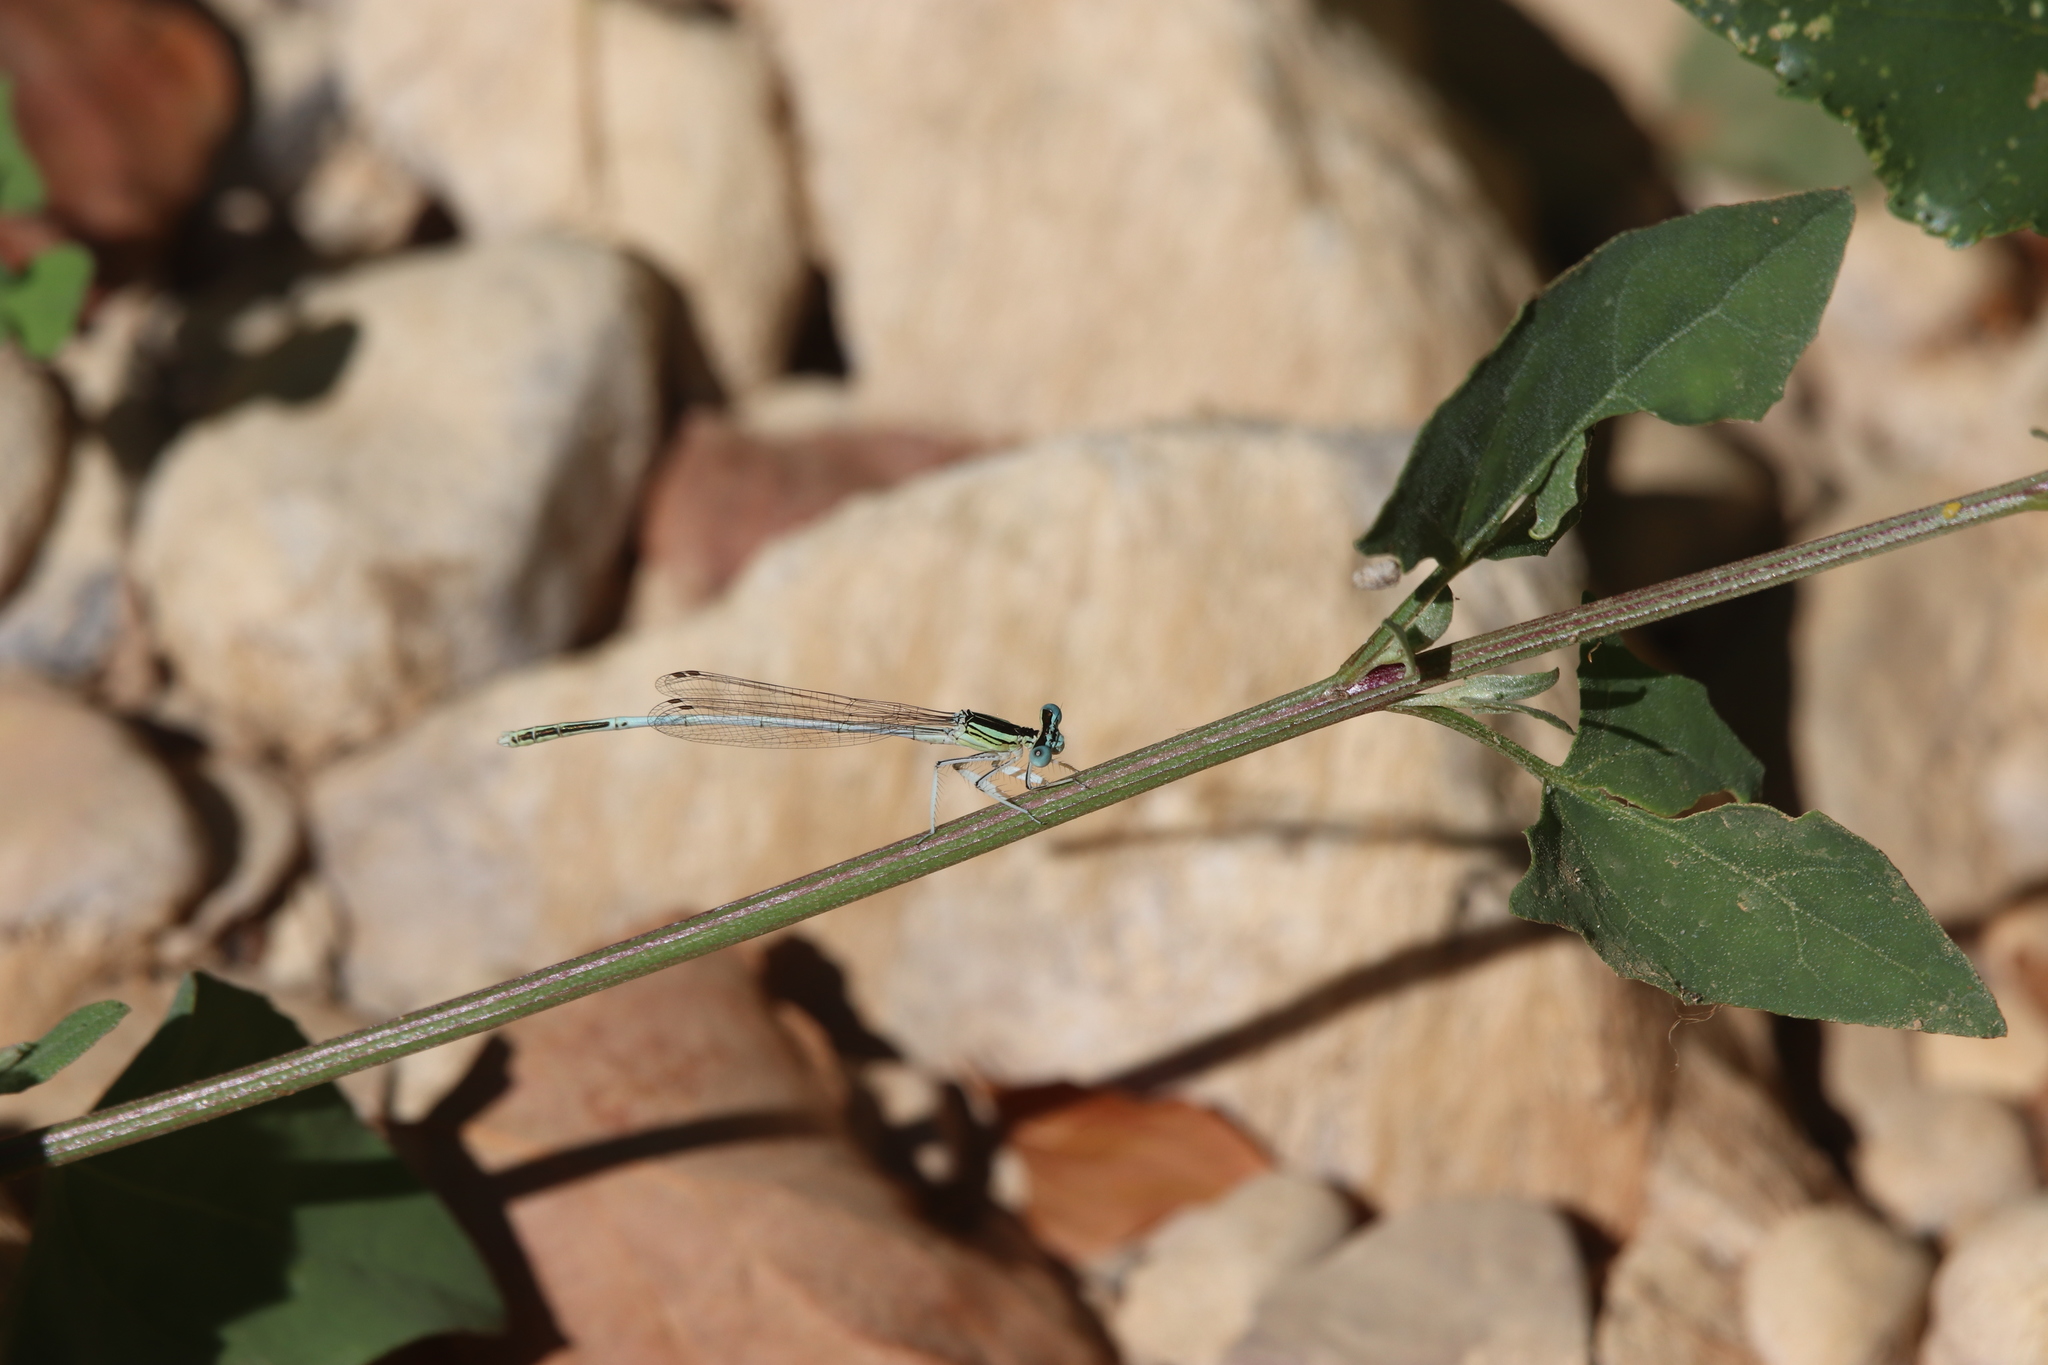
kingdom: Animalia
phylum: Arthropoda
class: Insecta
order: Odonata
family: Platycnemididae
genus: Platycnemis
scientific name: Platycnemis latipes
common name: White featherleg
